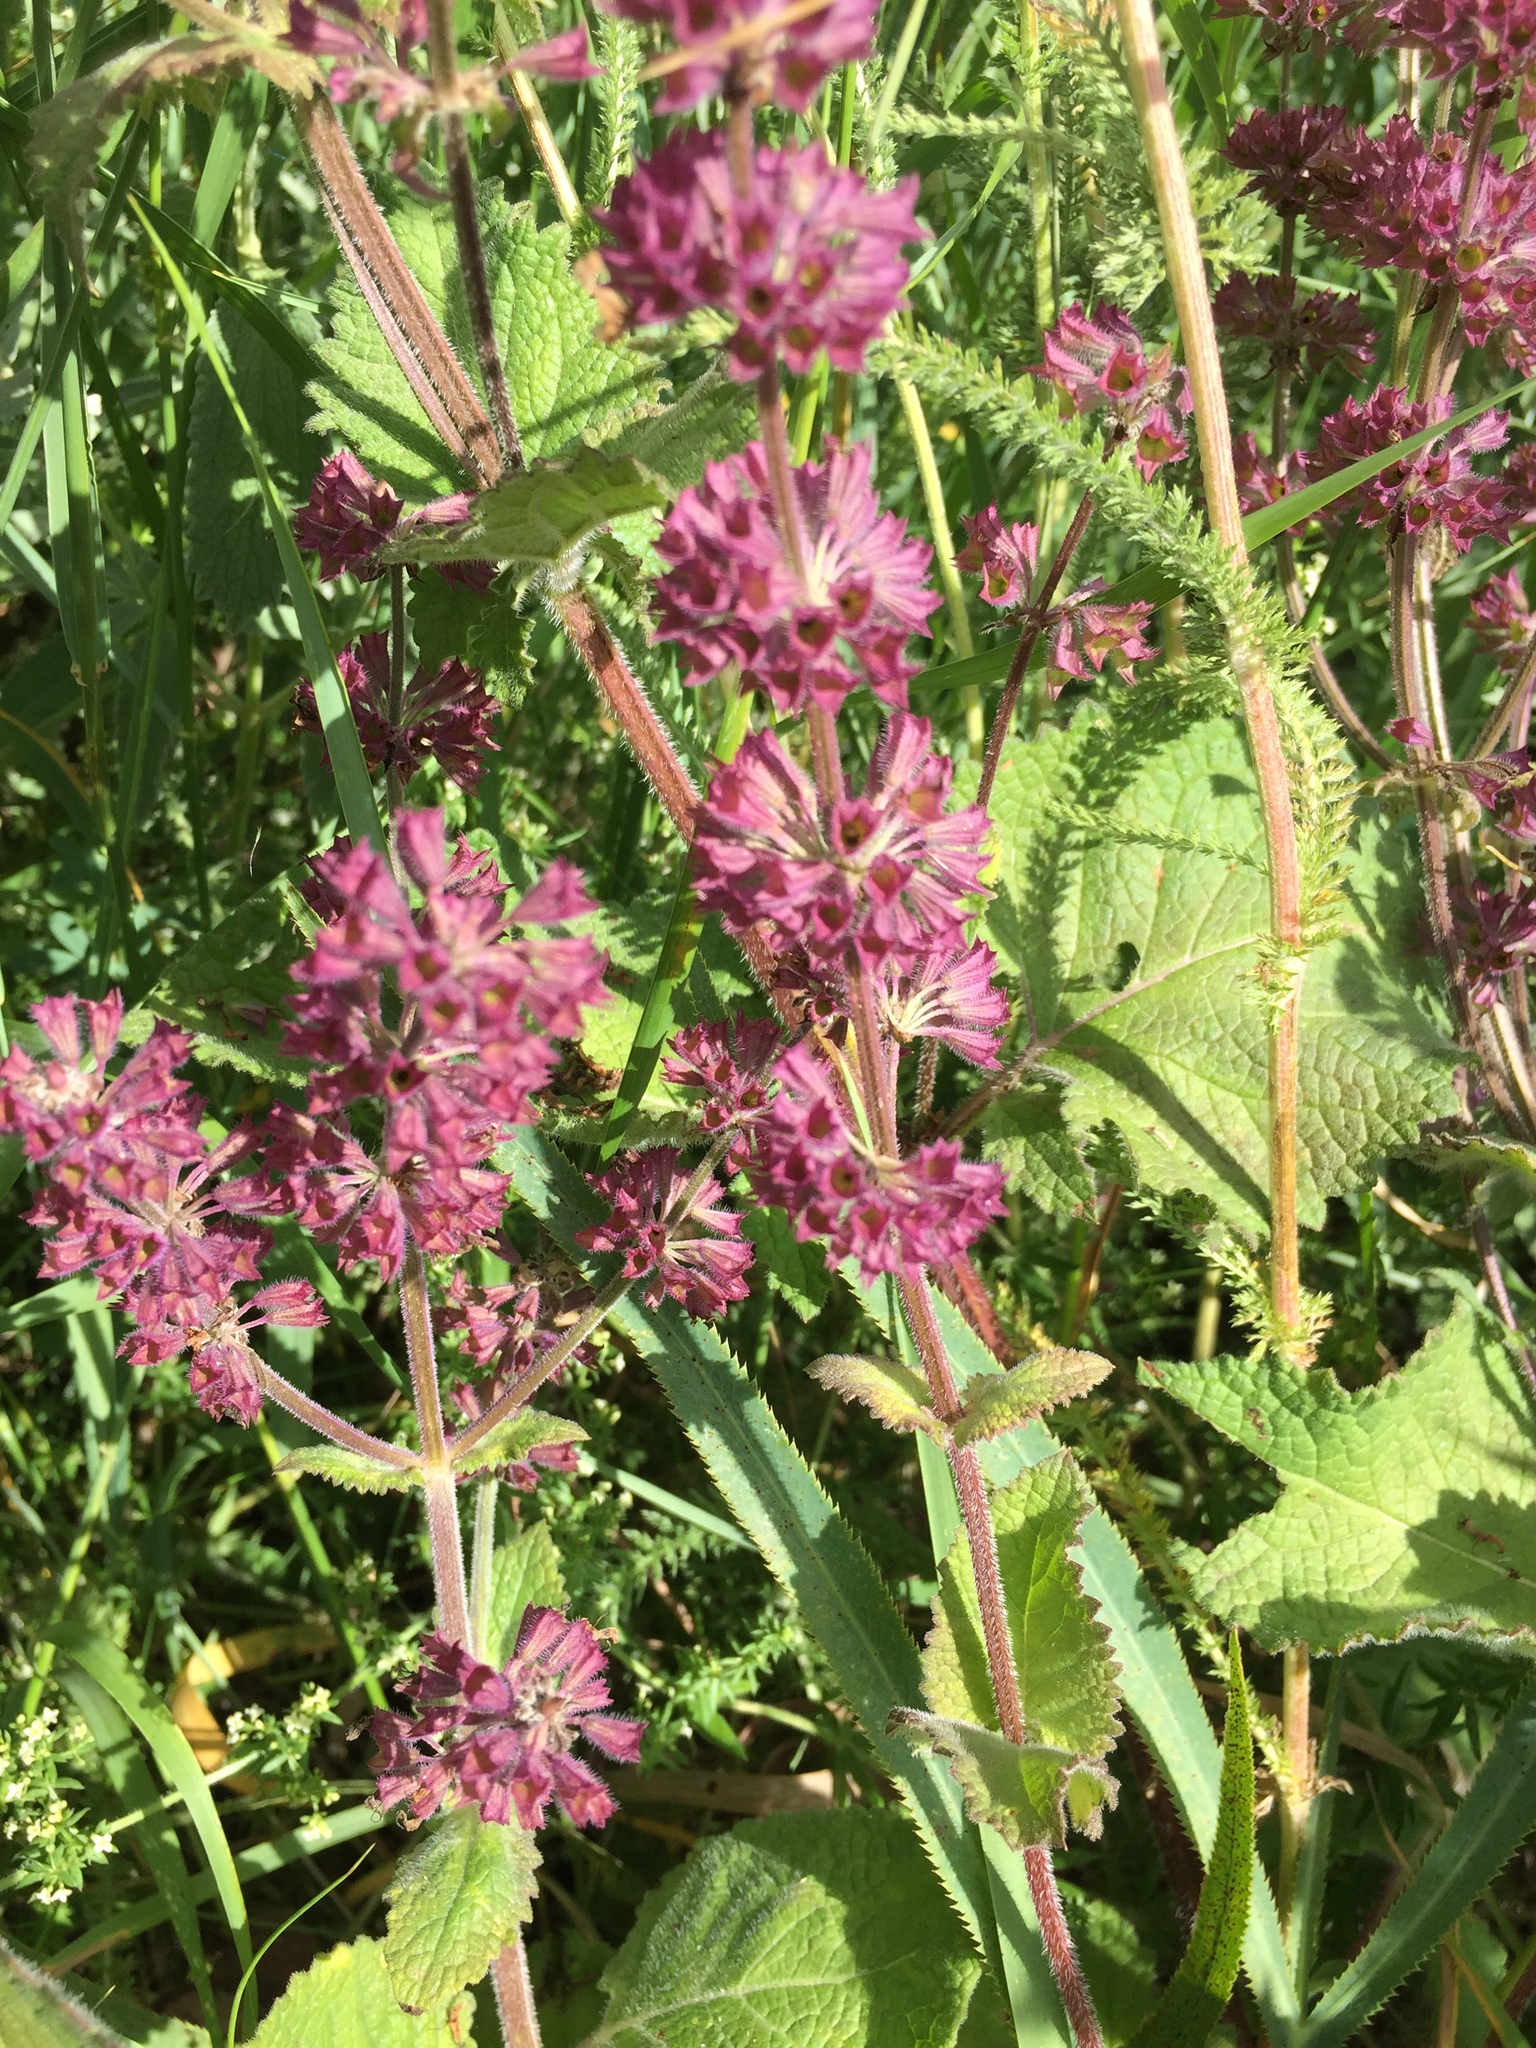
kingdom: Plantae
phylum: Tracheophyta
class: Magnoliopsida
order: Lamiales
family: Lamiaceae
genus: Salvia
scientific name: Salvia verticillata
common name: Whorled clary
